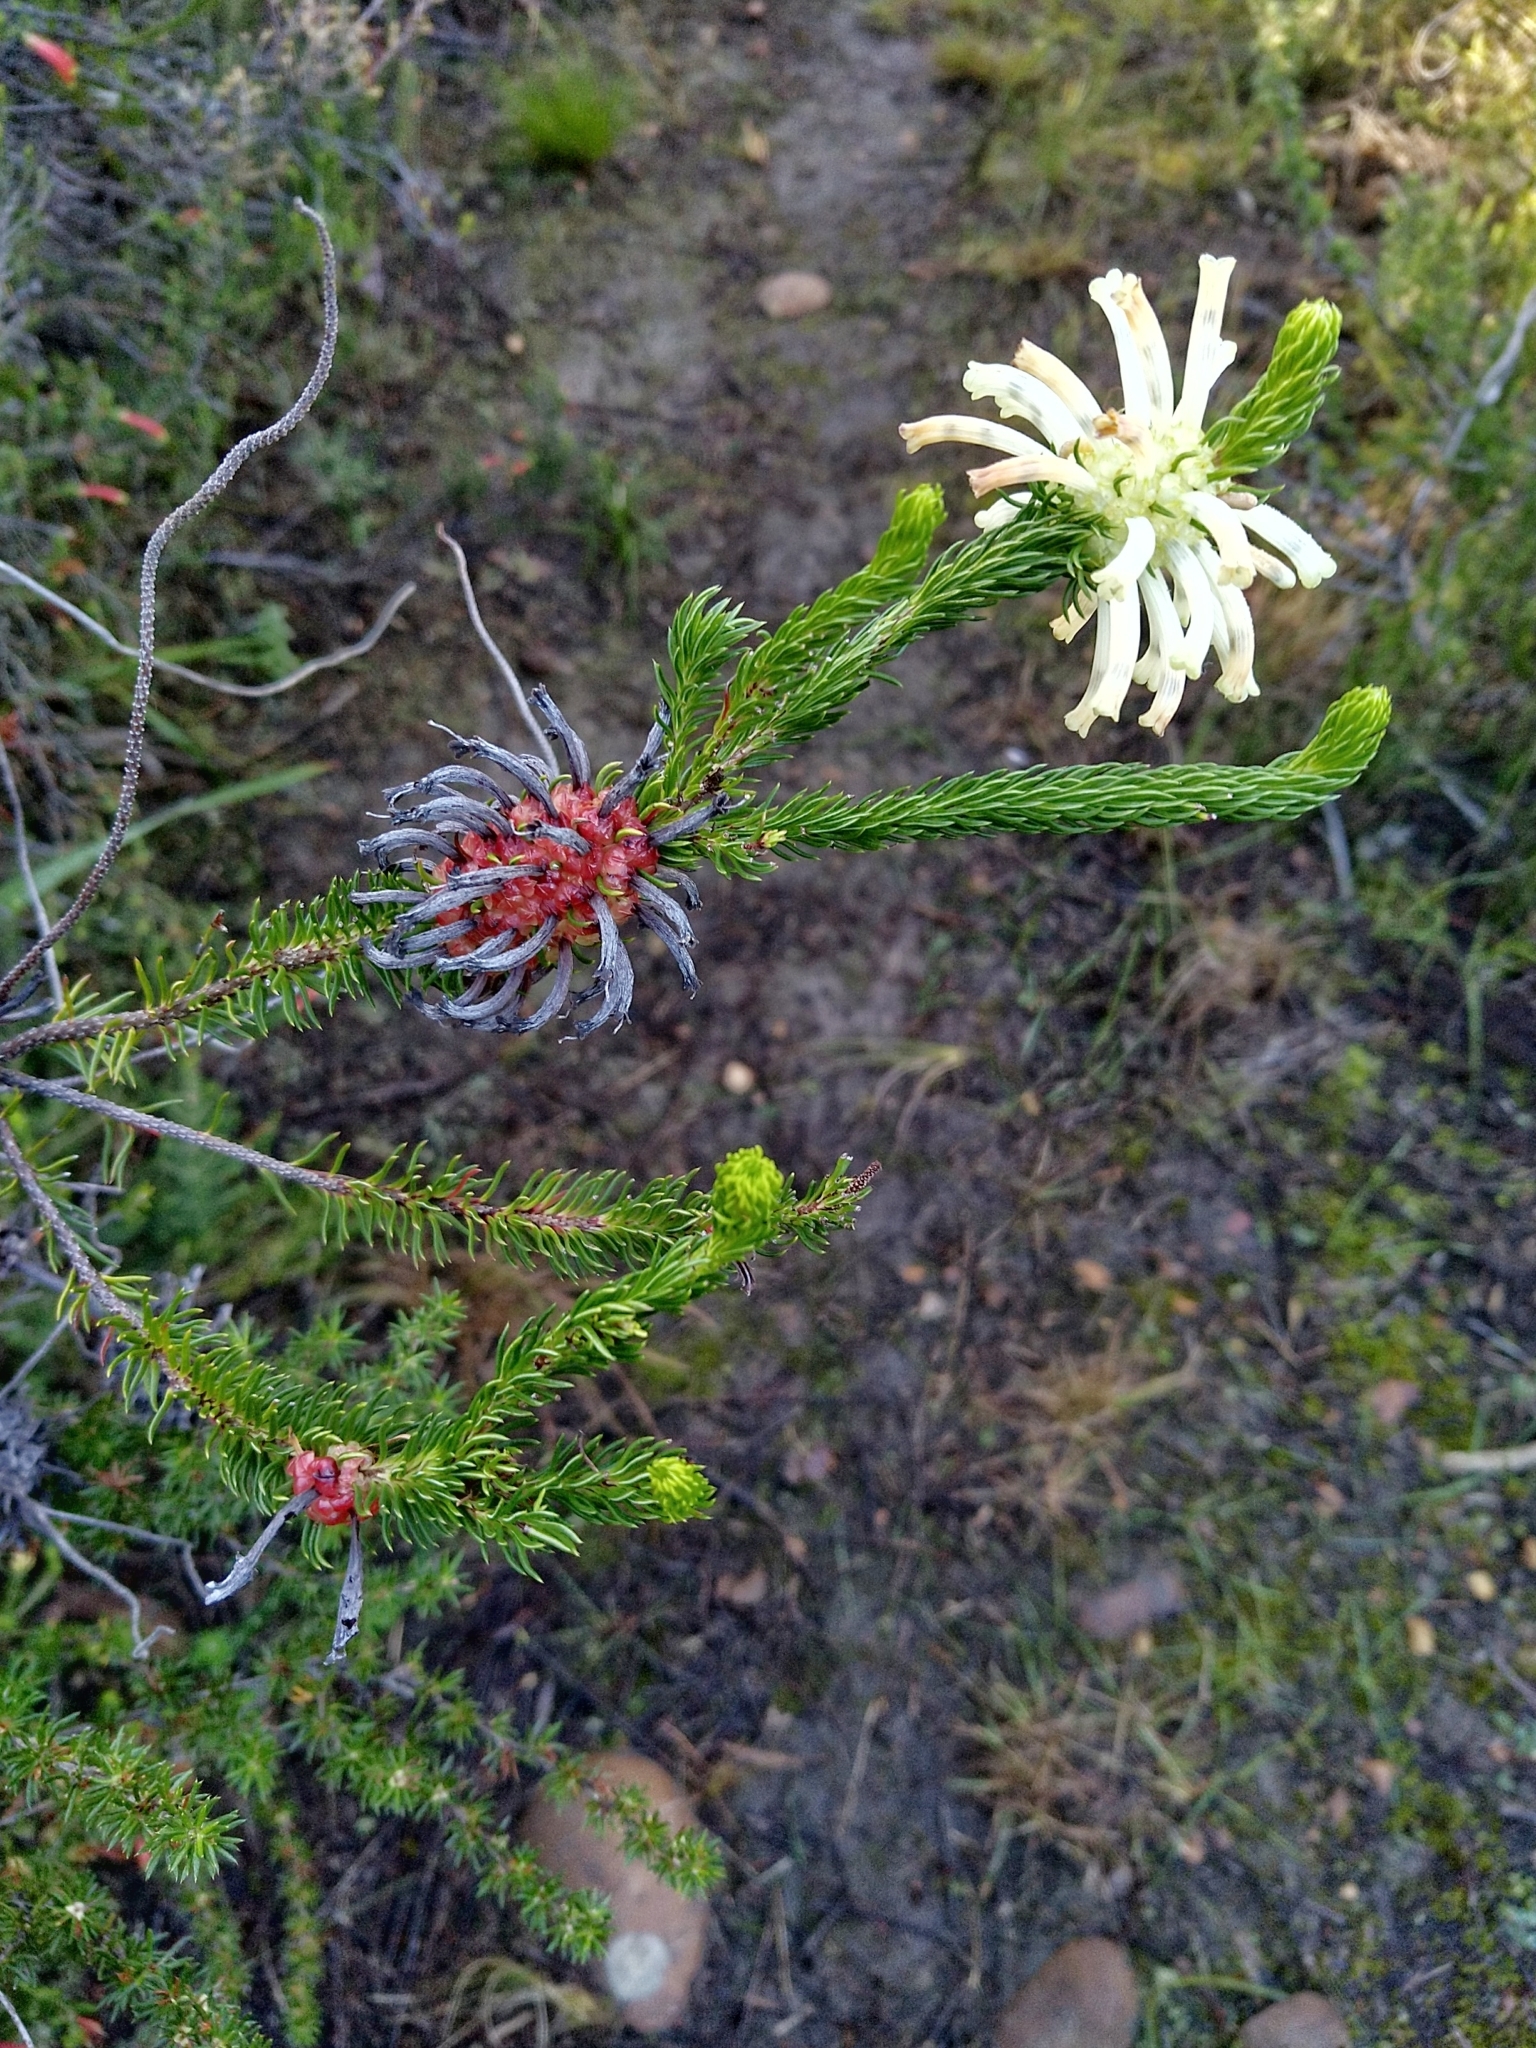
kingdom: Plantae
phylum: Tracheophyta
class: Magnoliopsida
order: Ericales
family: Ericaceae
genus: Erica
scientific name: Erica sessiliflora
